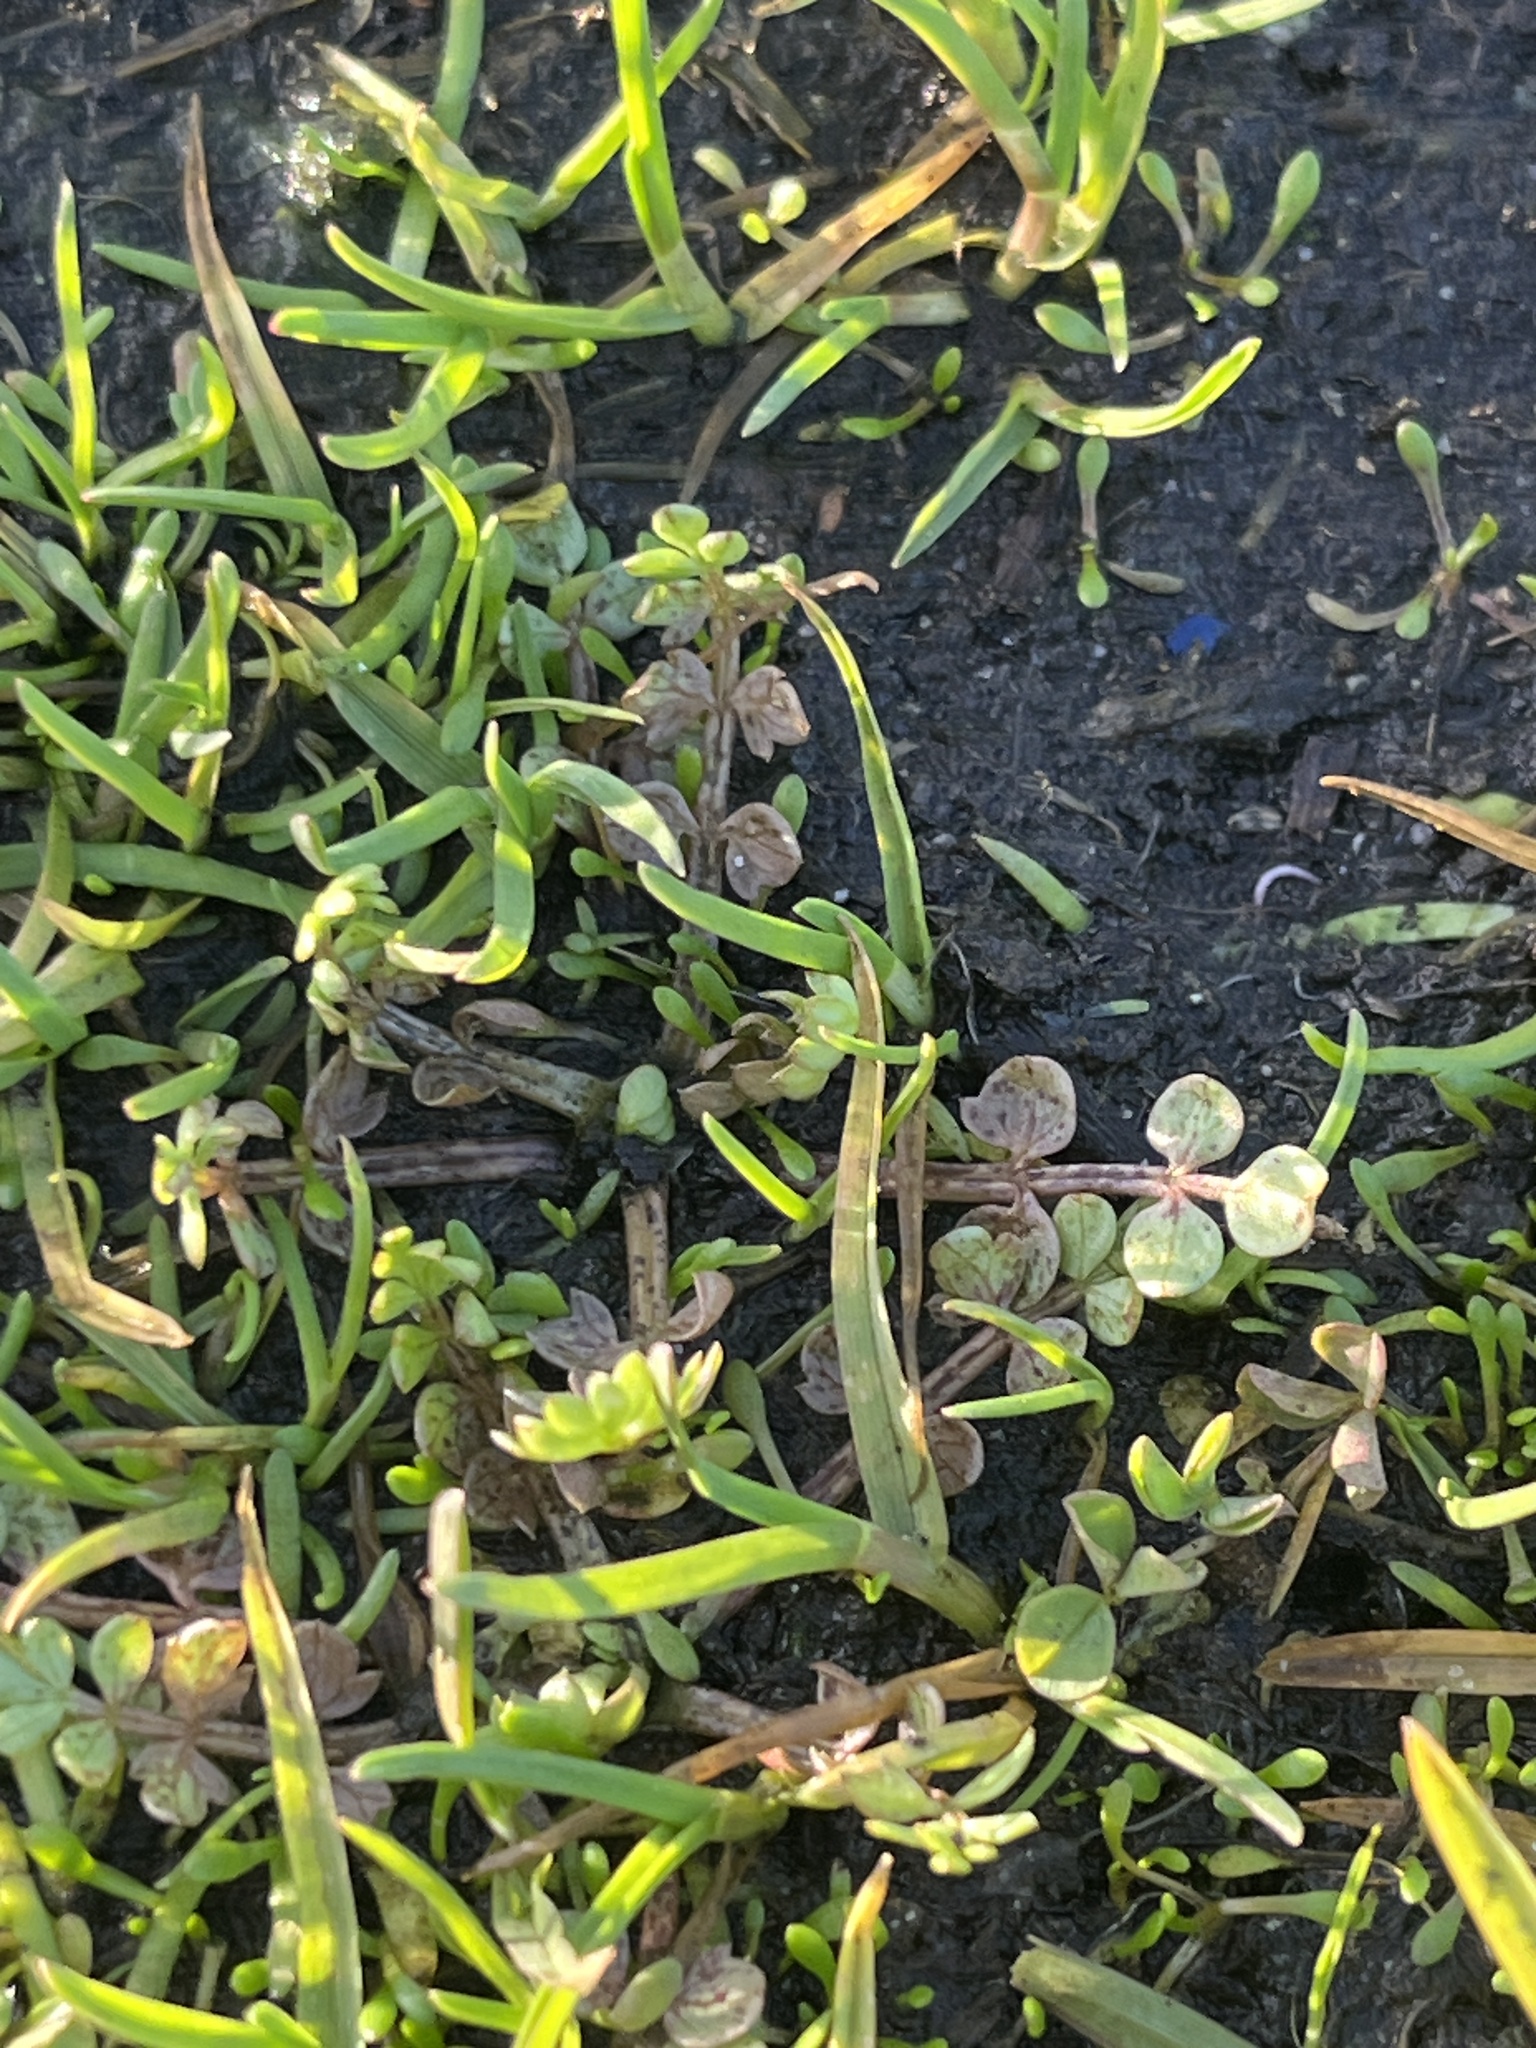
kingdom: Plantae
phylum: Tracheophyta
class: Magnoliopsida
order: Brassicales
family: Limnanthaceae
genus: Limnanthes
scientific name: Limnanthes macounii
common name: Macoun's meadowfoam
